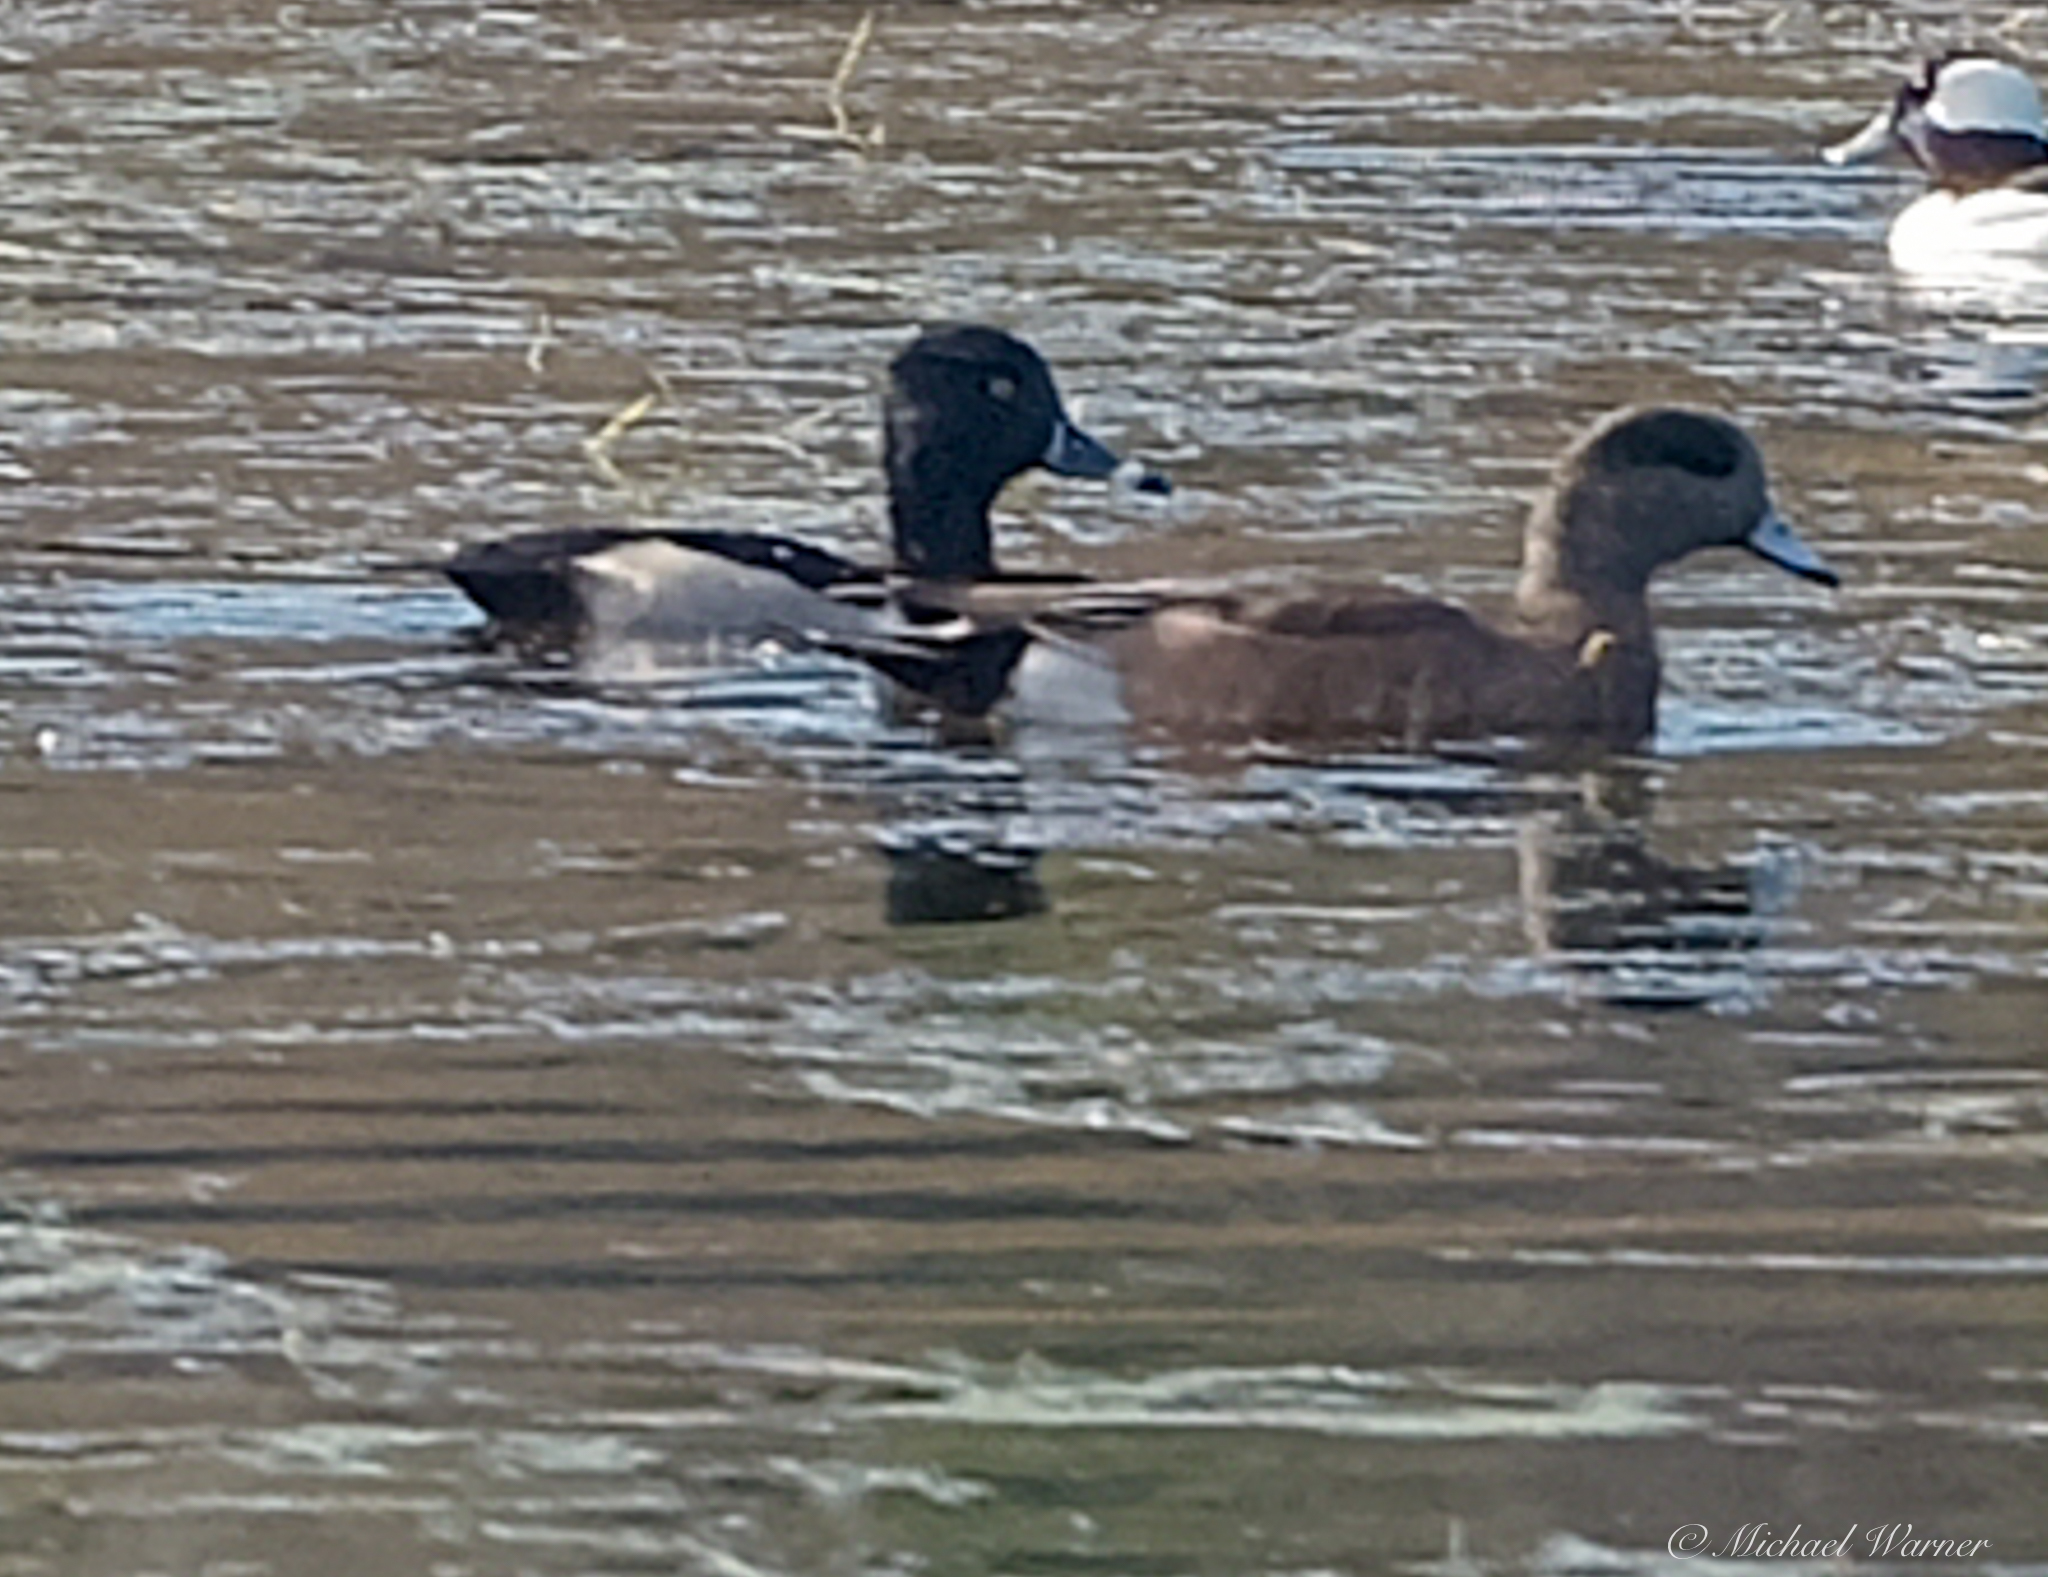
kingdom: Animalia
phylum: Chordata
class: Aves
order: Anseriformes
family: Anatidae
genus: Mareca
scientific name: Mareca americana
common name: American wigeon
